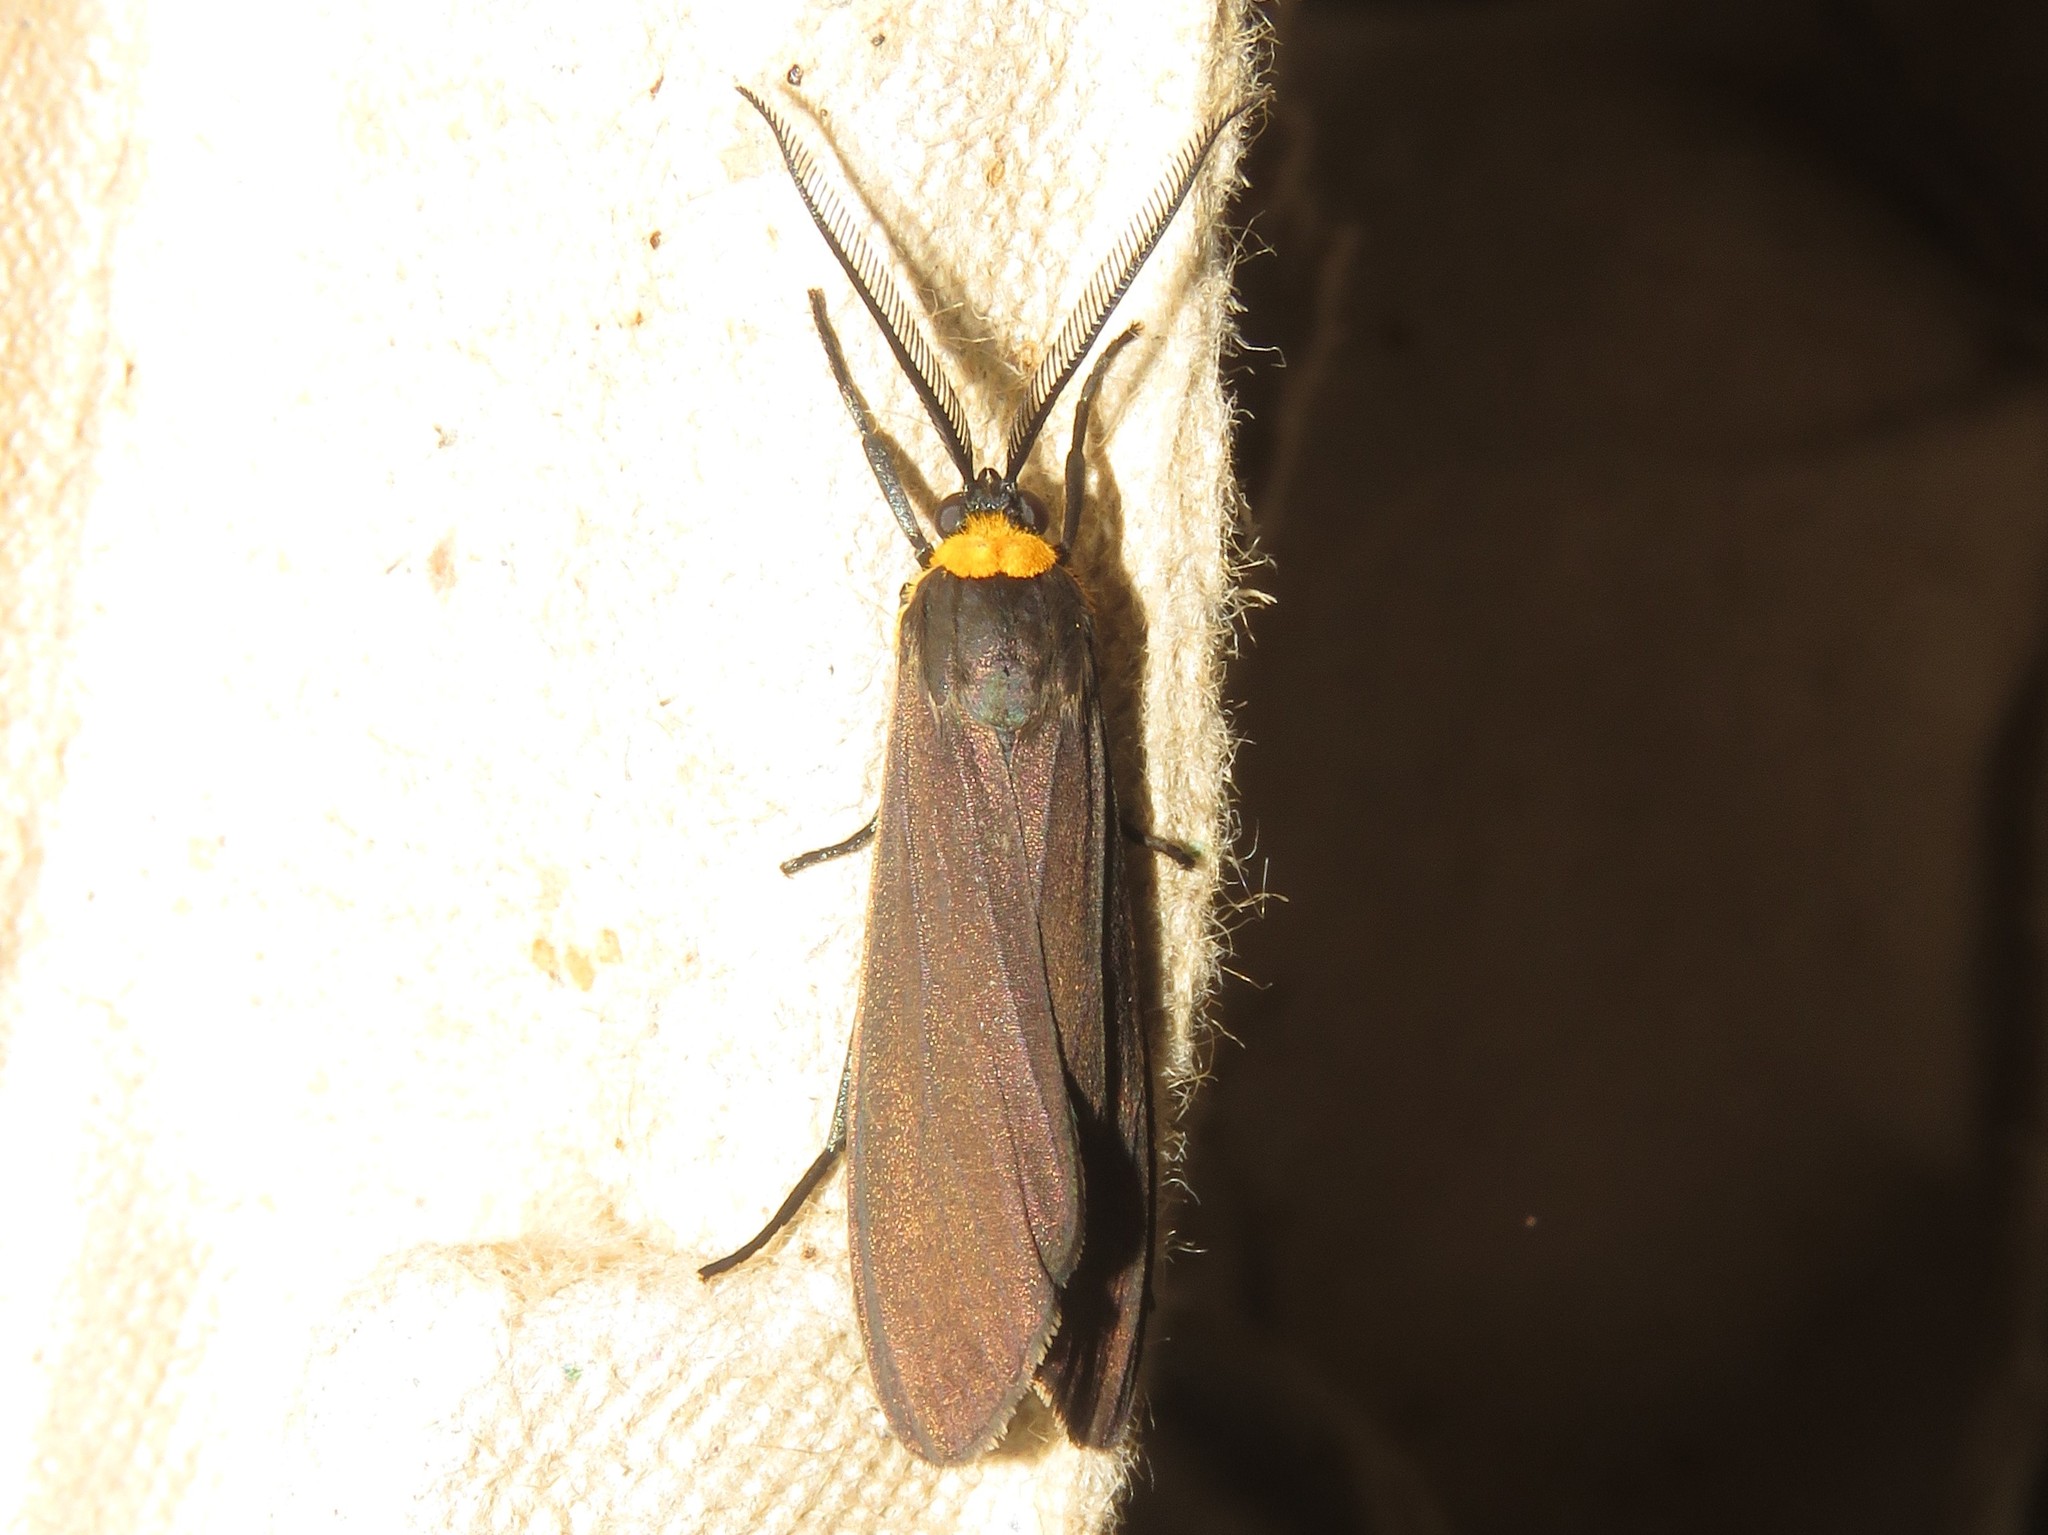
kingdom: Animalia
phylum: Arthropoda
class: Insecta
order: Lepidoptera
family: Erebidae
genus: Cisseps
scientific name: Cisseps fulvicollis
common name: Yellow-collared scape moth
